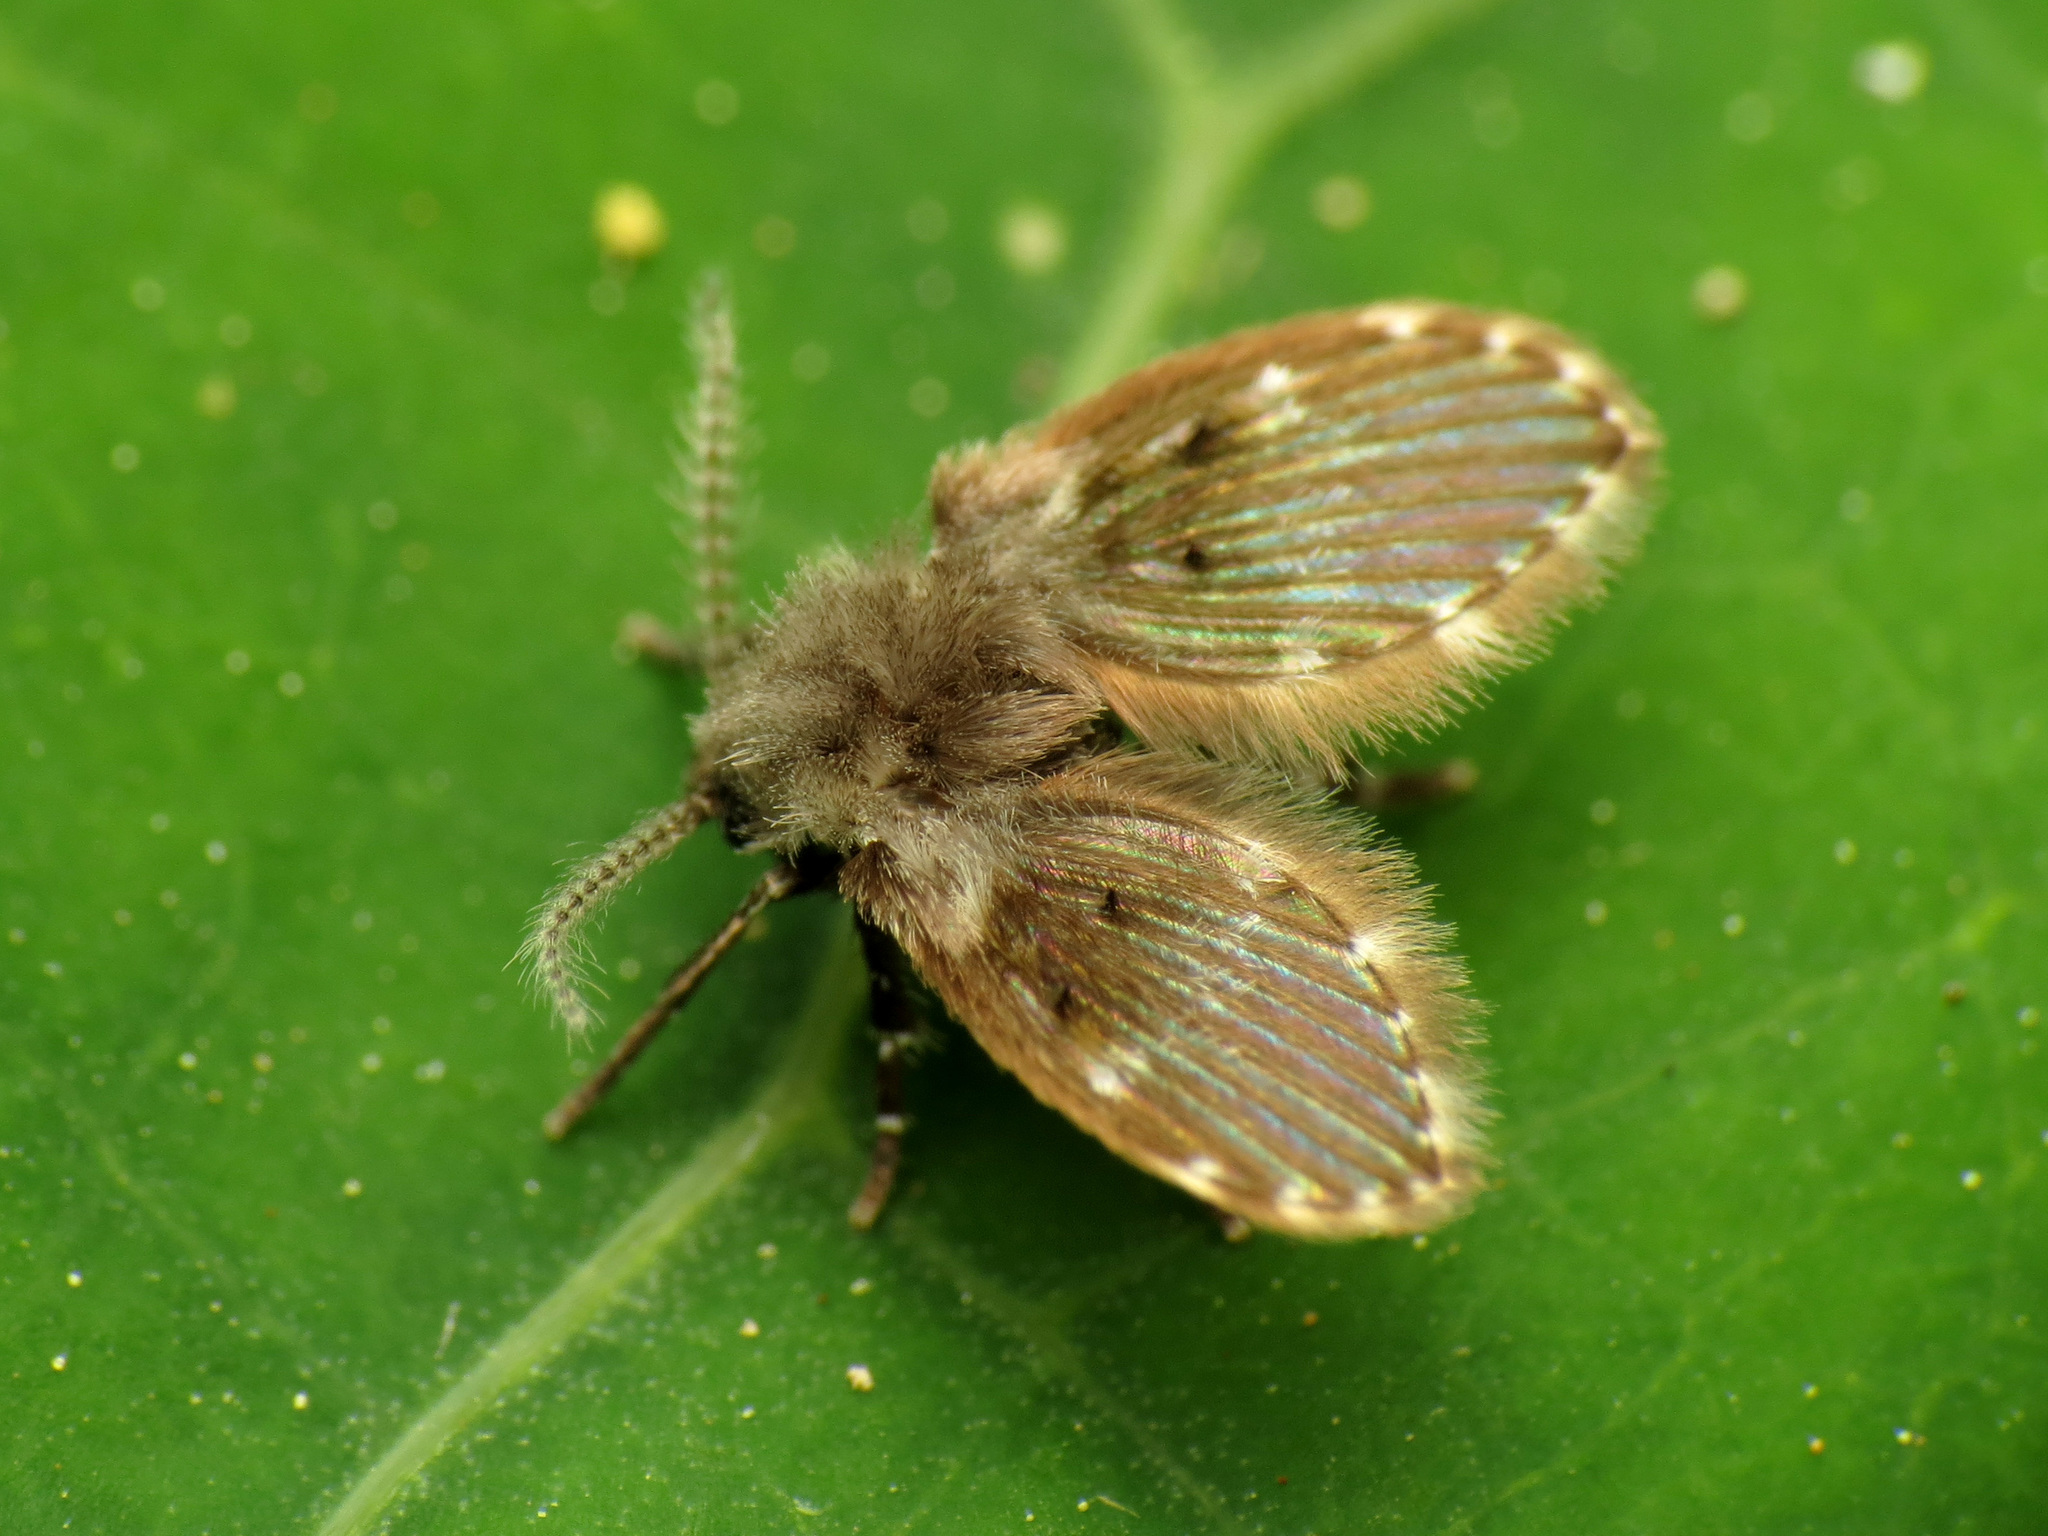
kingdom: Animalia
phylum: Arthropoda
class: Insecta
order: Diptera
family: Psychodidae
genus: Clogmia
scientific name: Clogmia albipunctatus
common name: White-spotted moth fly
